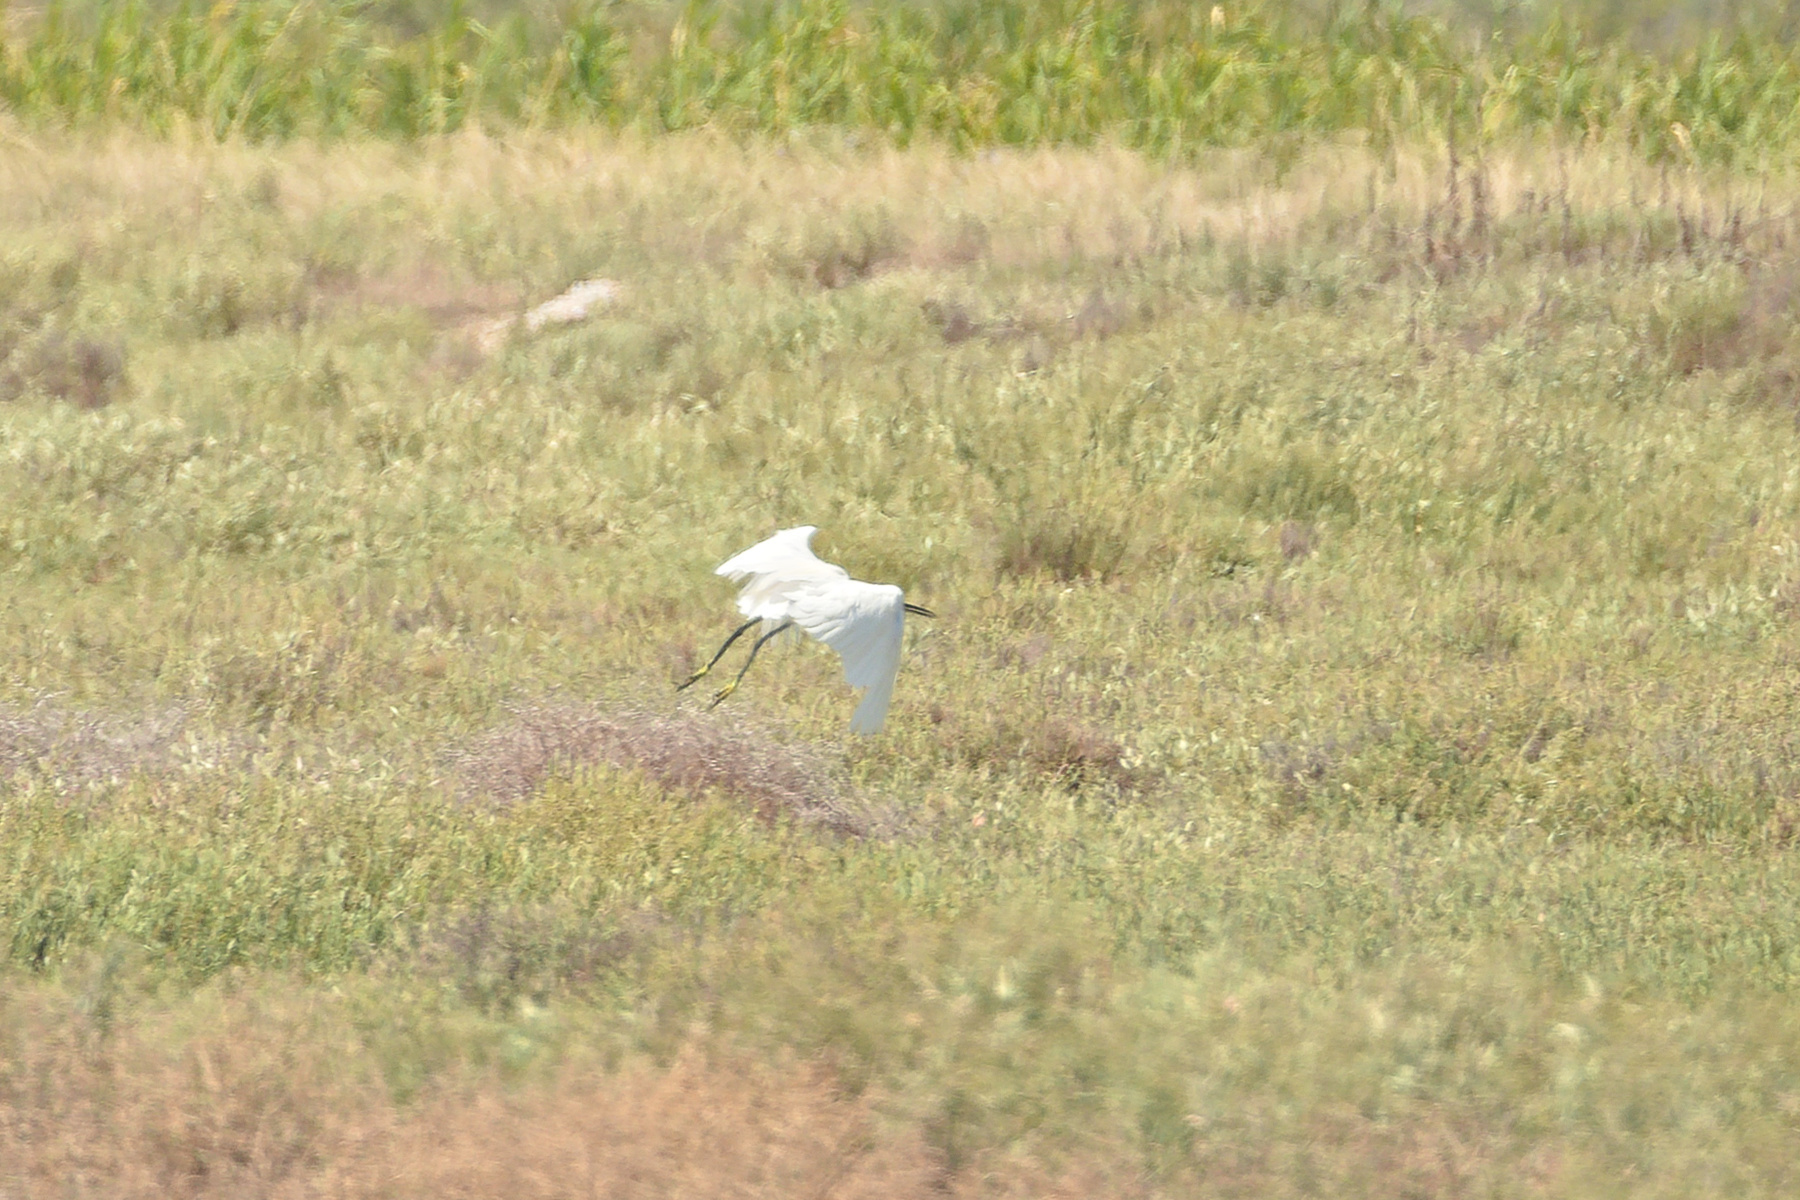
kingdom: Animalia
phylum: Chordata
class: Aves
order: Pelecaniformes
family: Ardeidae
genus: Egretta
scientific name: Egretta garzetta
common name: Little egret
